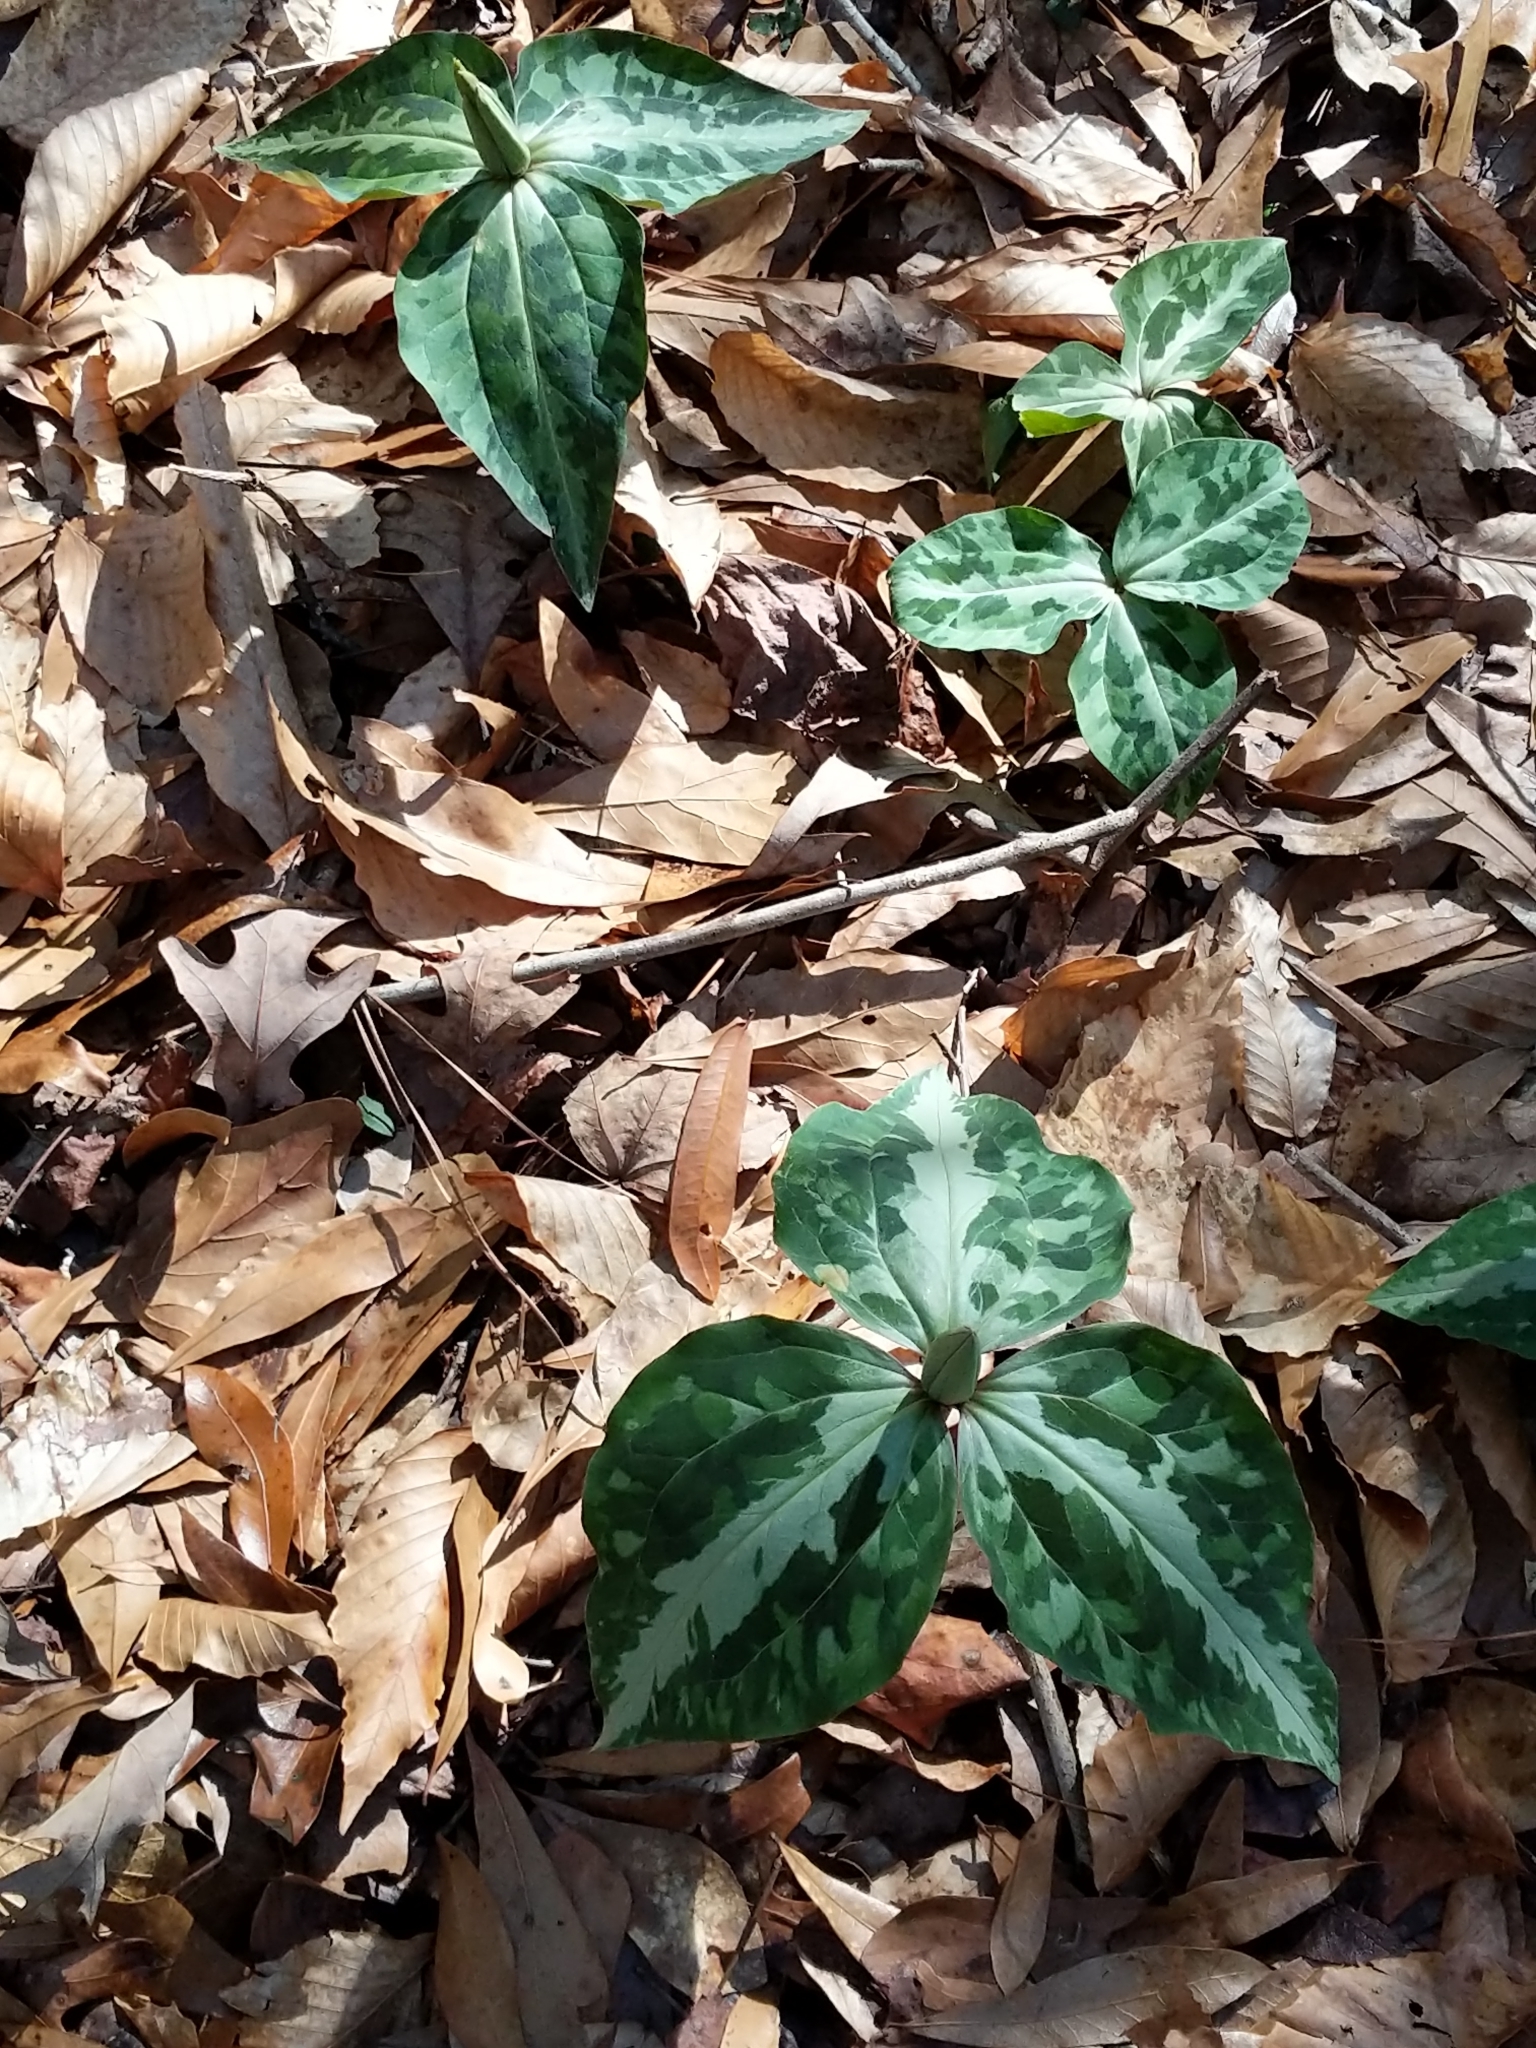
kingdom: Plantae
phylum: Tracheophyta
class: Liliopsida
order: Liliales
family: Melanthiaceae
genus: Trillium
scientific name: Trillium underwoodii
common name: Longbract wakerobin
